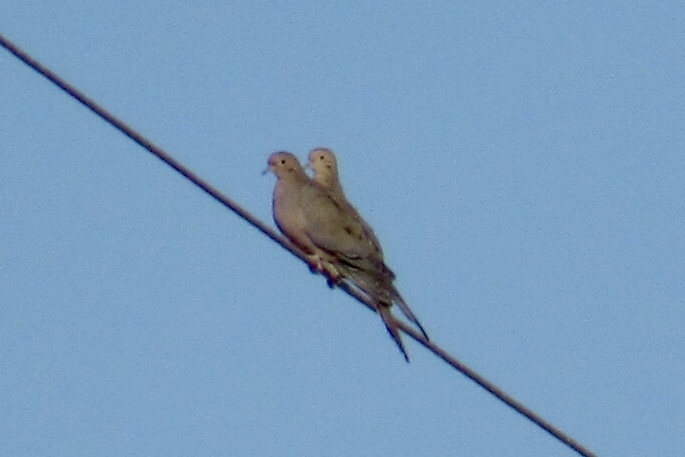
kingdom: Animalia
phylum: Chordata
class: Aves
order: Columbiformes
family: Columbidae
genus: Zenaida
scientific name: Zenaida macroura
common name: Mourning dove
